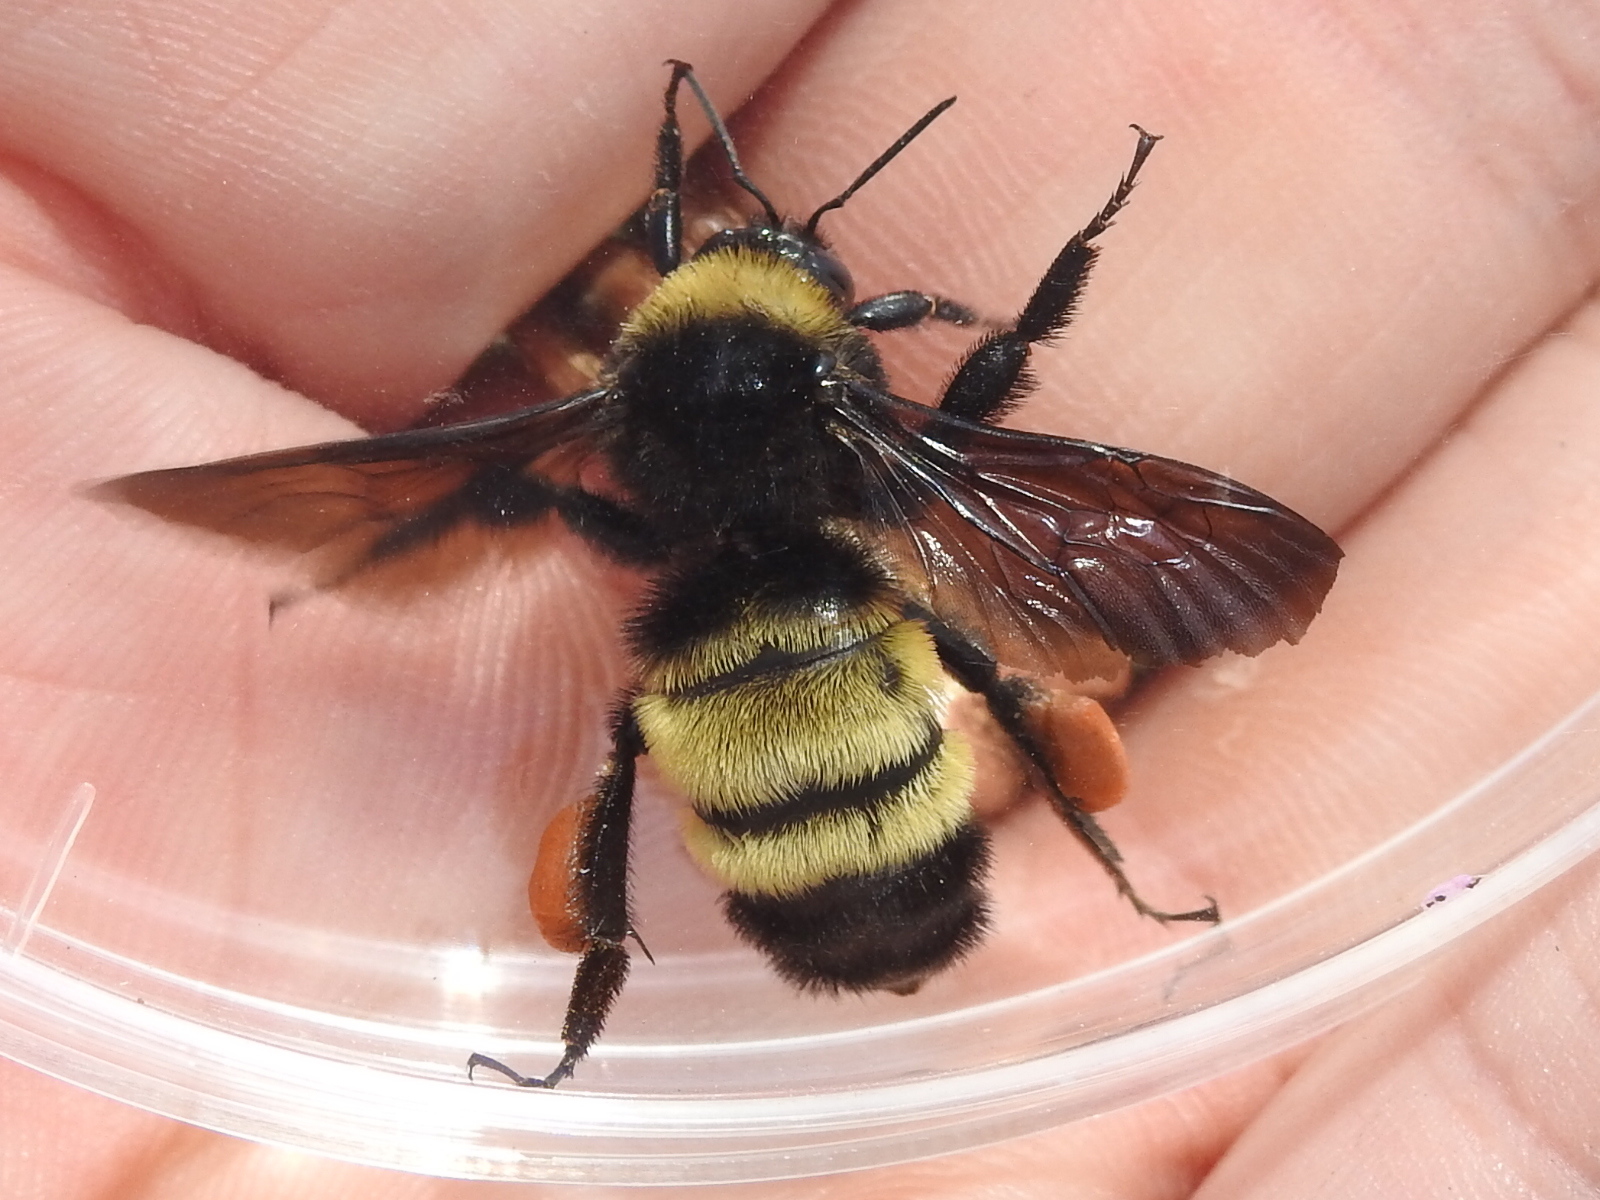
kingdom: Animalia
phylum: Arthropoda
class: Insecta
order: Hymenoptera
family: Apidae
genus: Bombus
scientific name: Bombus pensylvanicus
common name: Bumble bee
